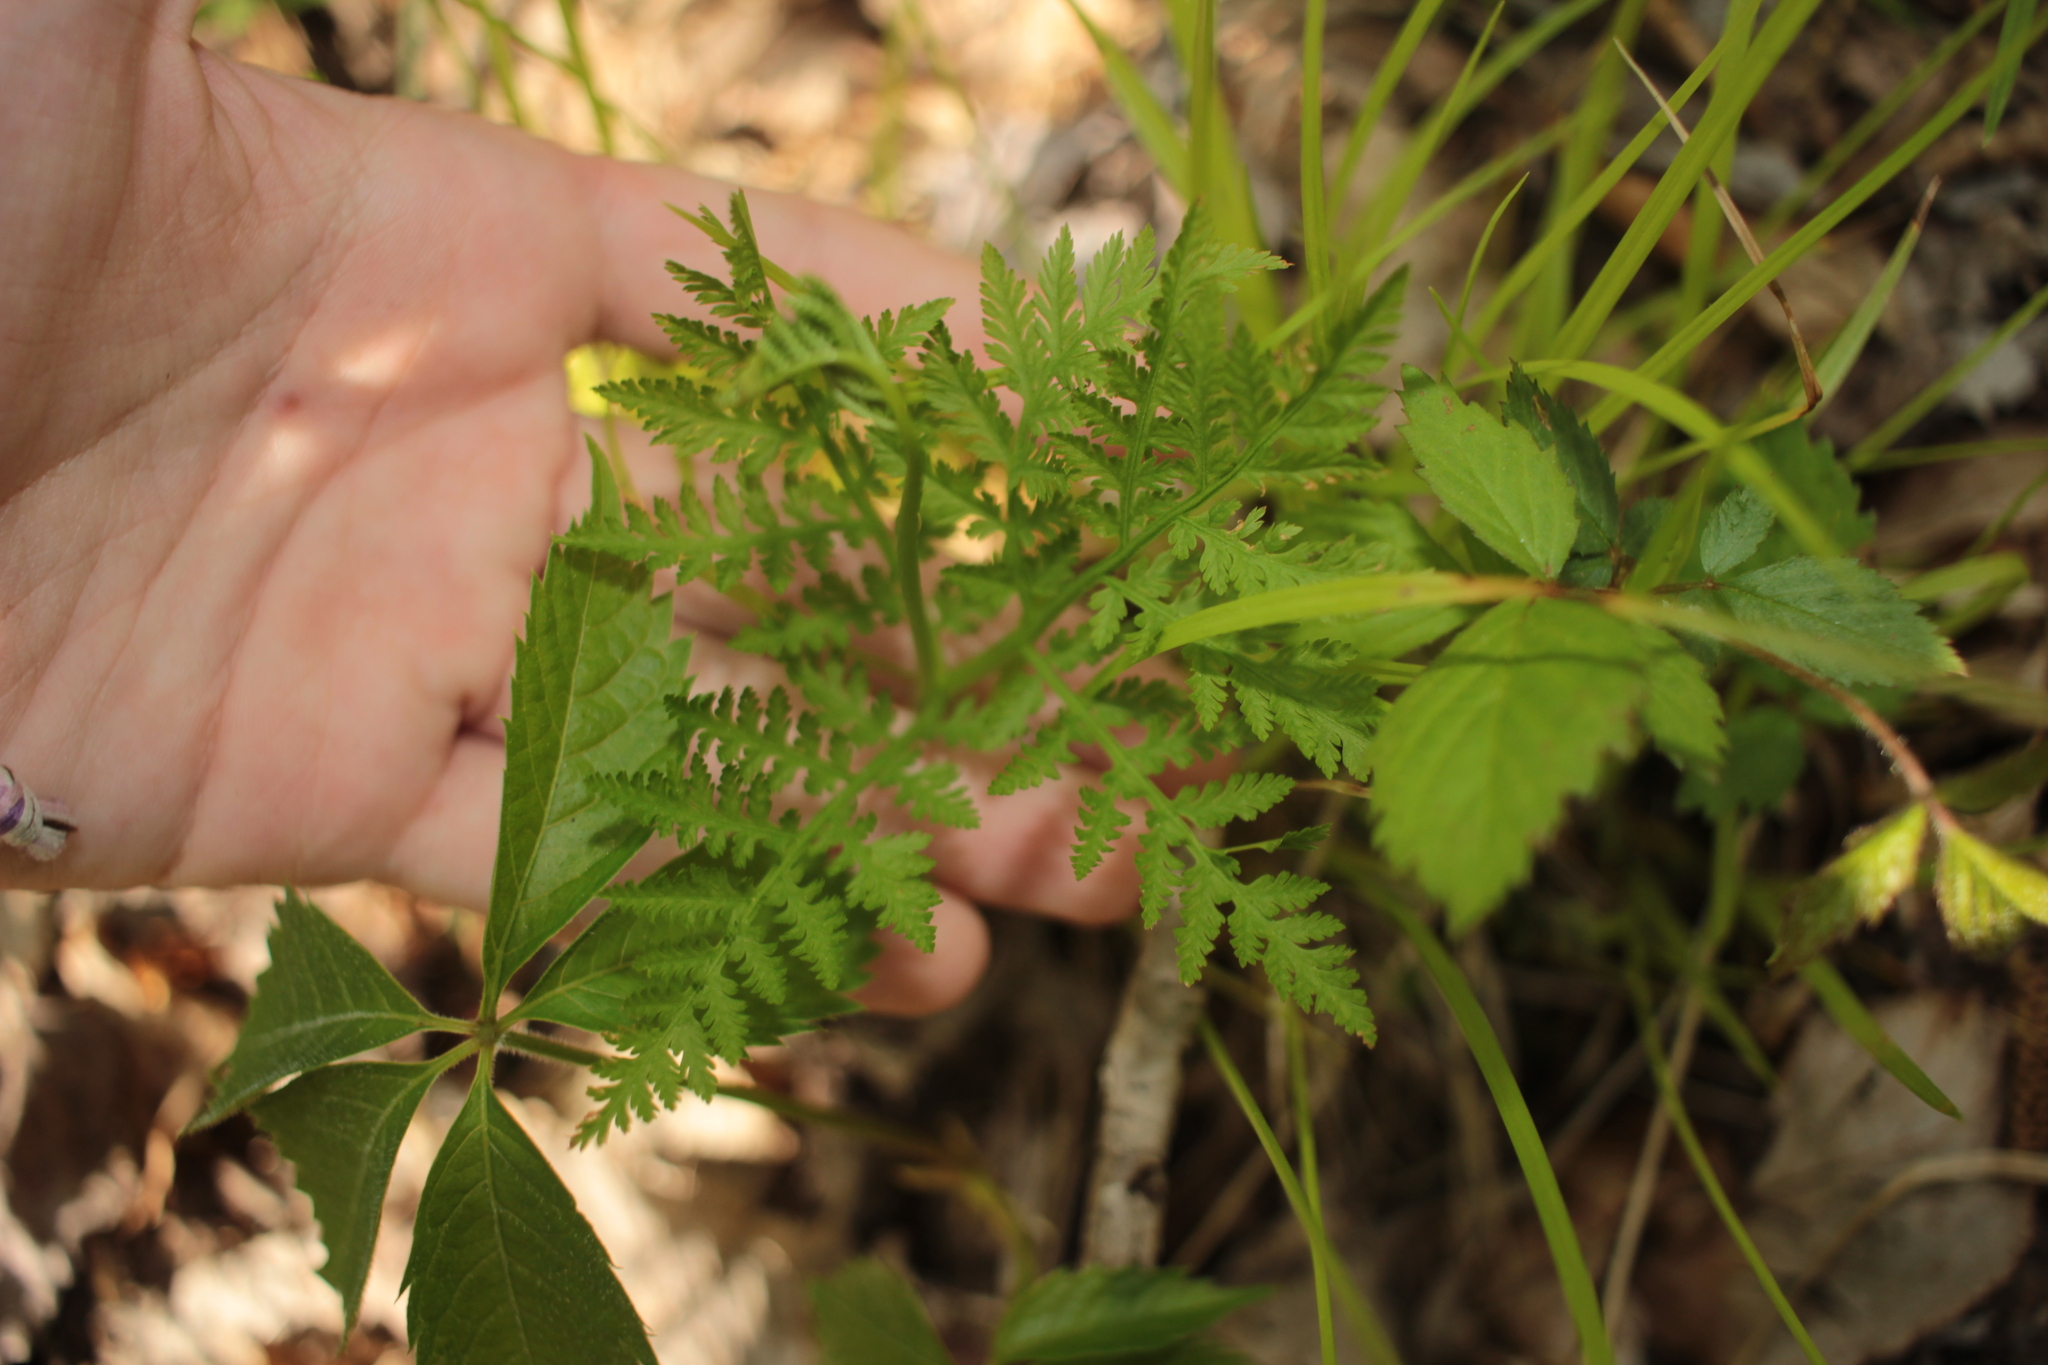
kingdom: Plantae
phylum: Tracheophyta
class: Polypodiopsida
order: Ophioglossales
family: Ophioglossaceae
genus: Botrypus
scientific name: Botrypus virginianus
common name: Common grapefern
